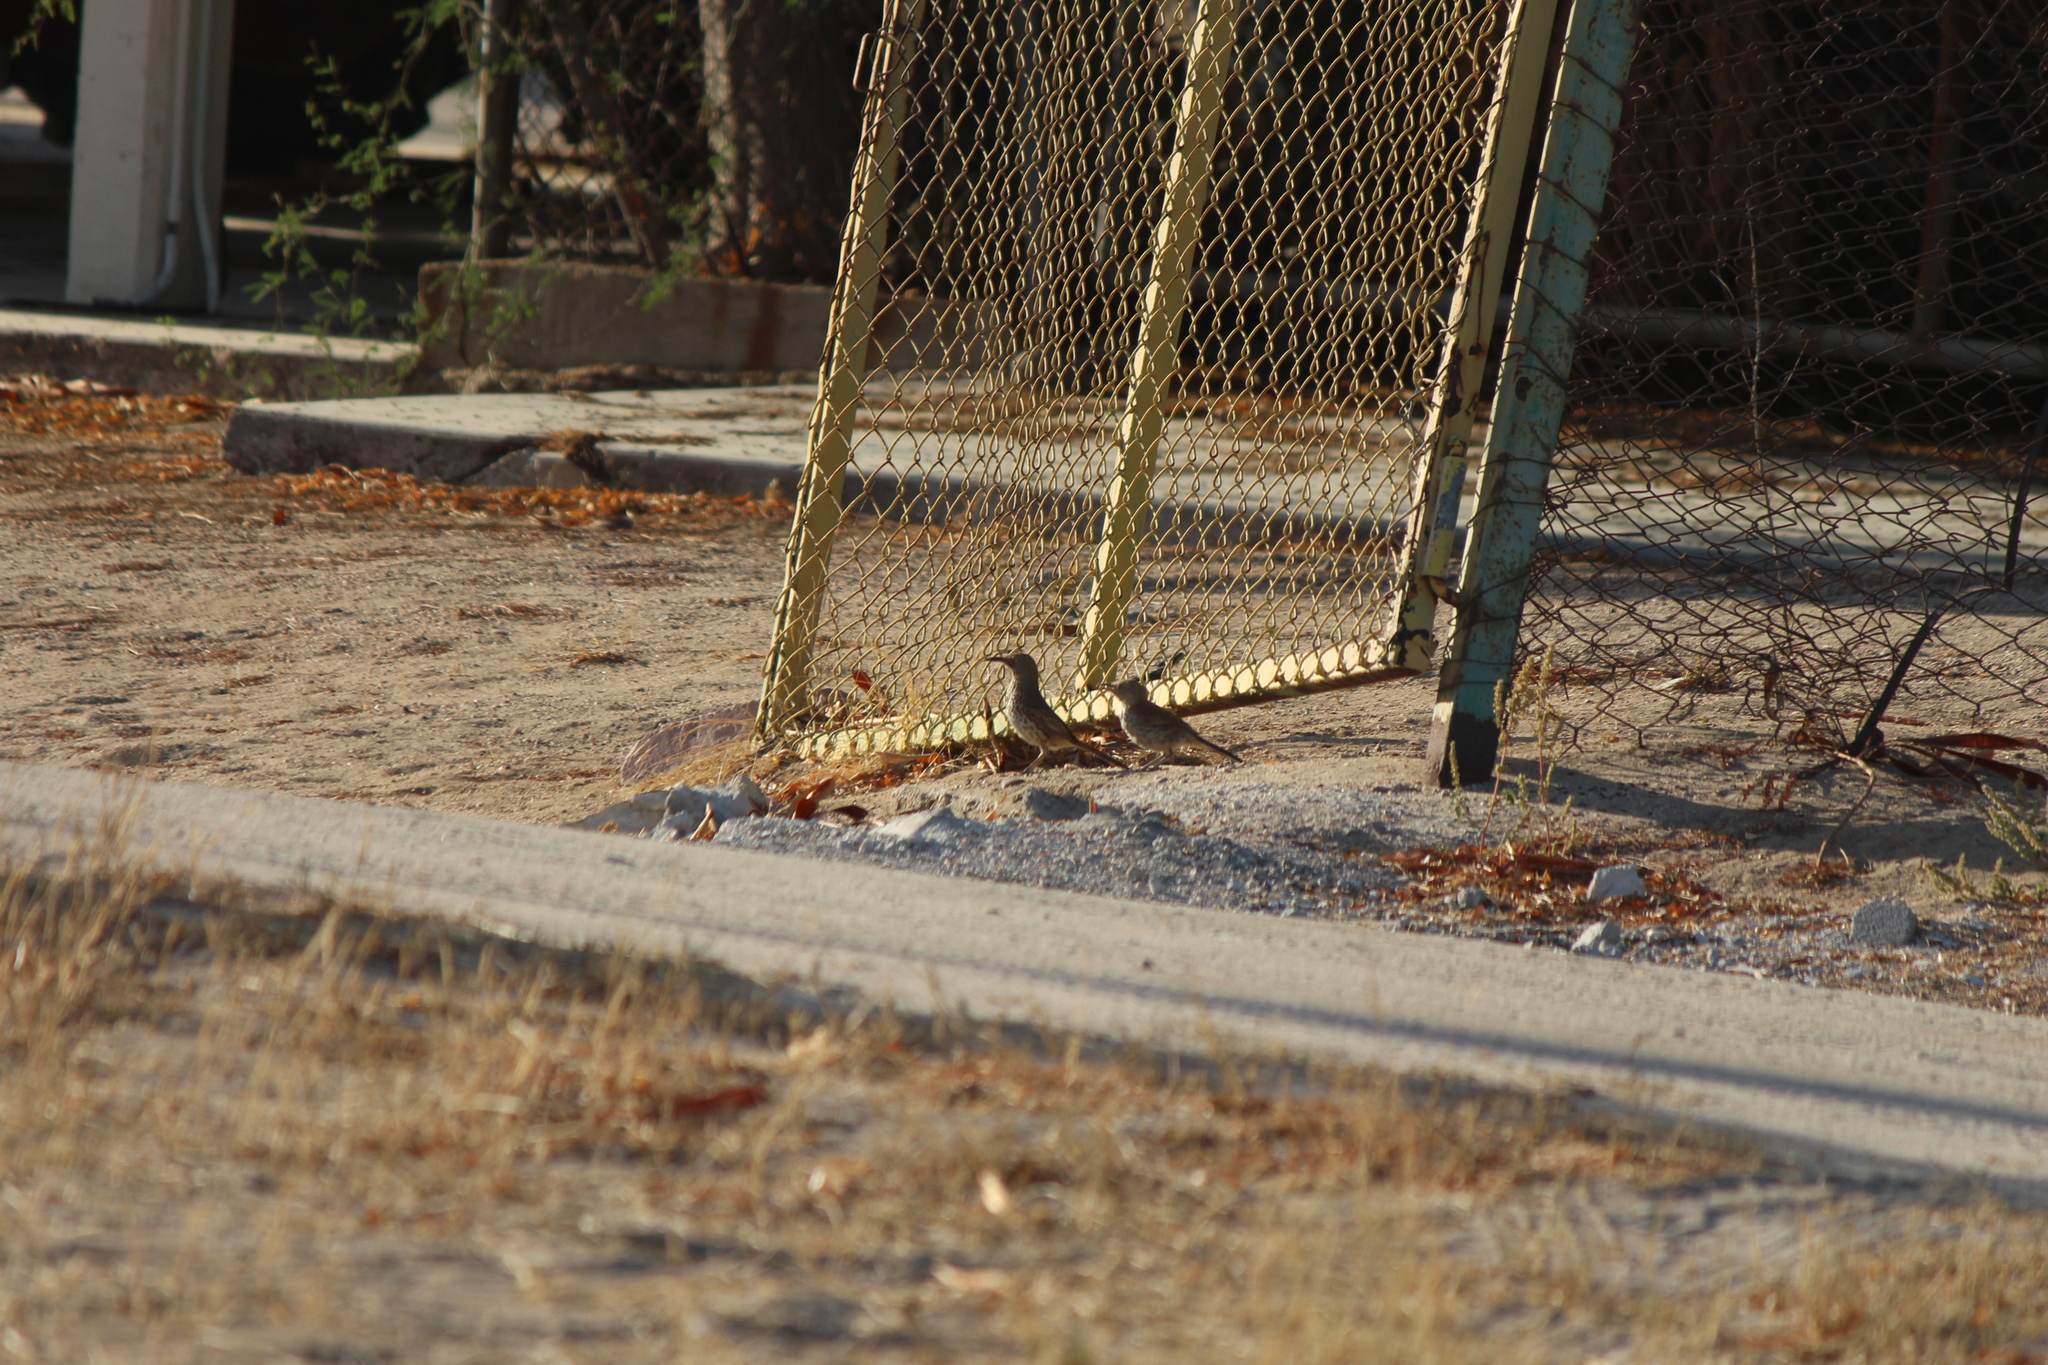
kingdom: Animalia
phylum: Chordata
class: Aves
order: Passeriformes
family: Mimidae
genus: Toxostoma
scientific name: Toxostoma cinereum
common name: Gray thrasher
